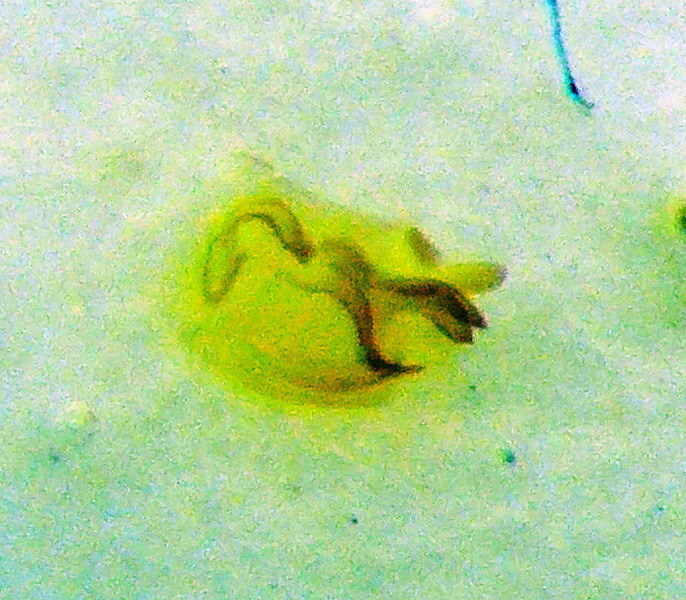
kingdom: Animalia
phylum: Arthropoda
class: Insecta
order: Hemiptera
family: Pentatomidae
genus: Tarisa
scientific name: Tarisa salsolae
